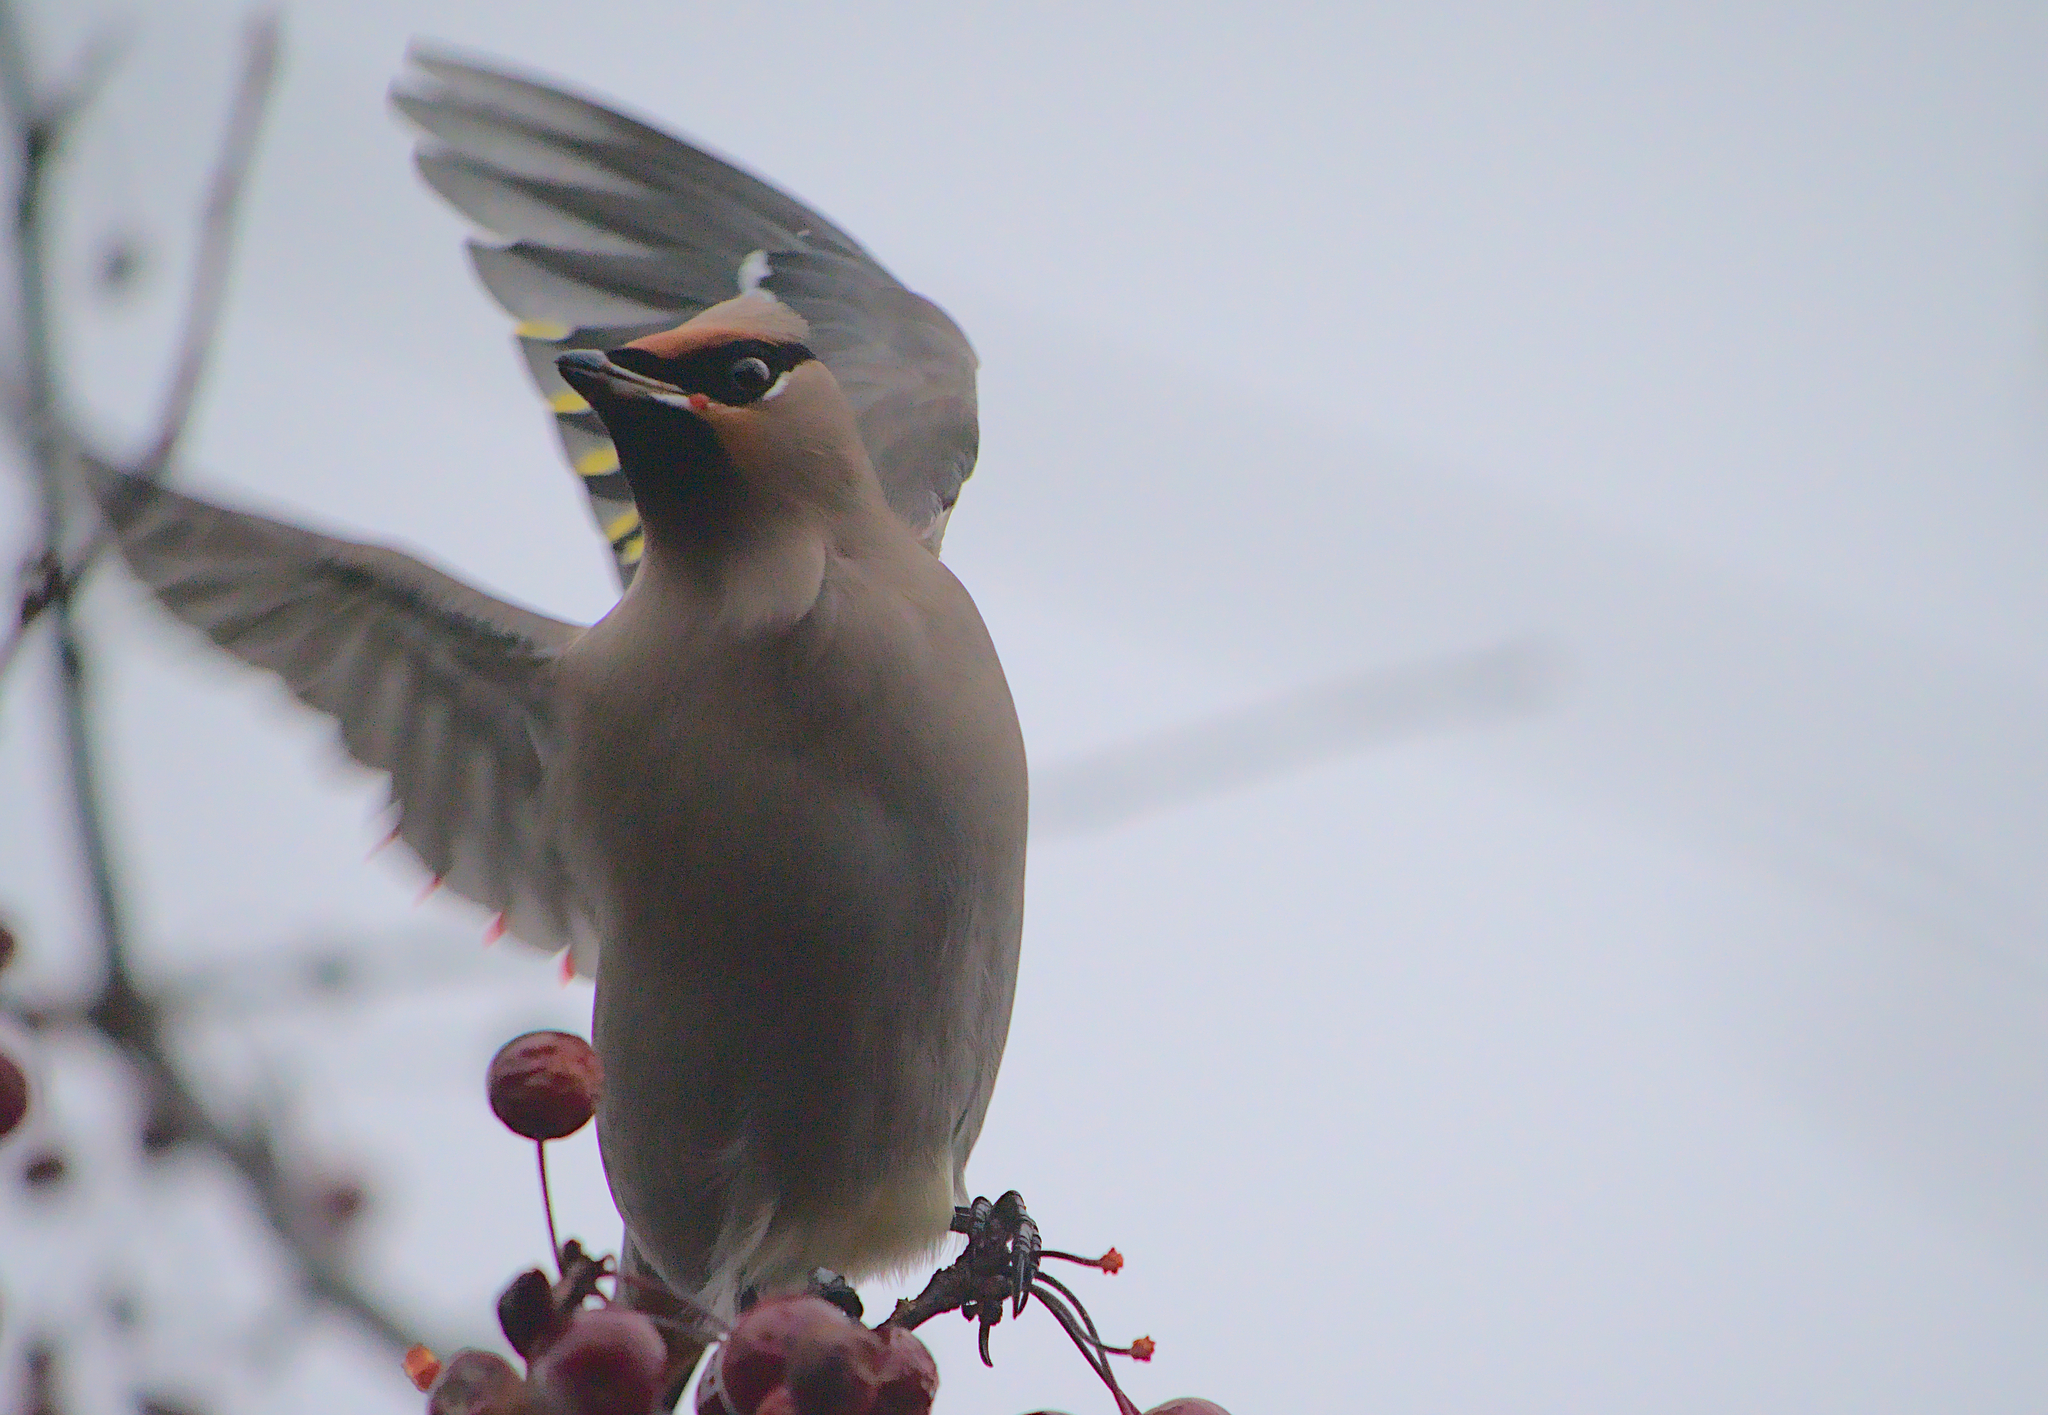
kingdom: Animalia
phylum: Chordata
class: Aves
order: Passeriformes
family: Bombycillidae
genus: Bombycilla
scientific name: Bombycilla garrulus
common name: Bohemian waxwing
